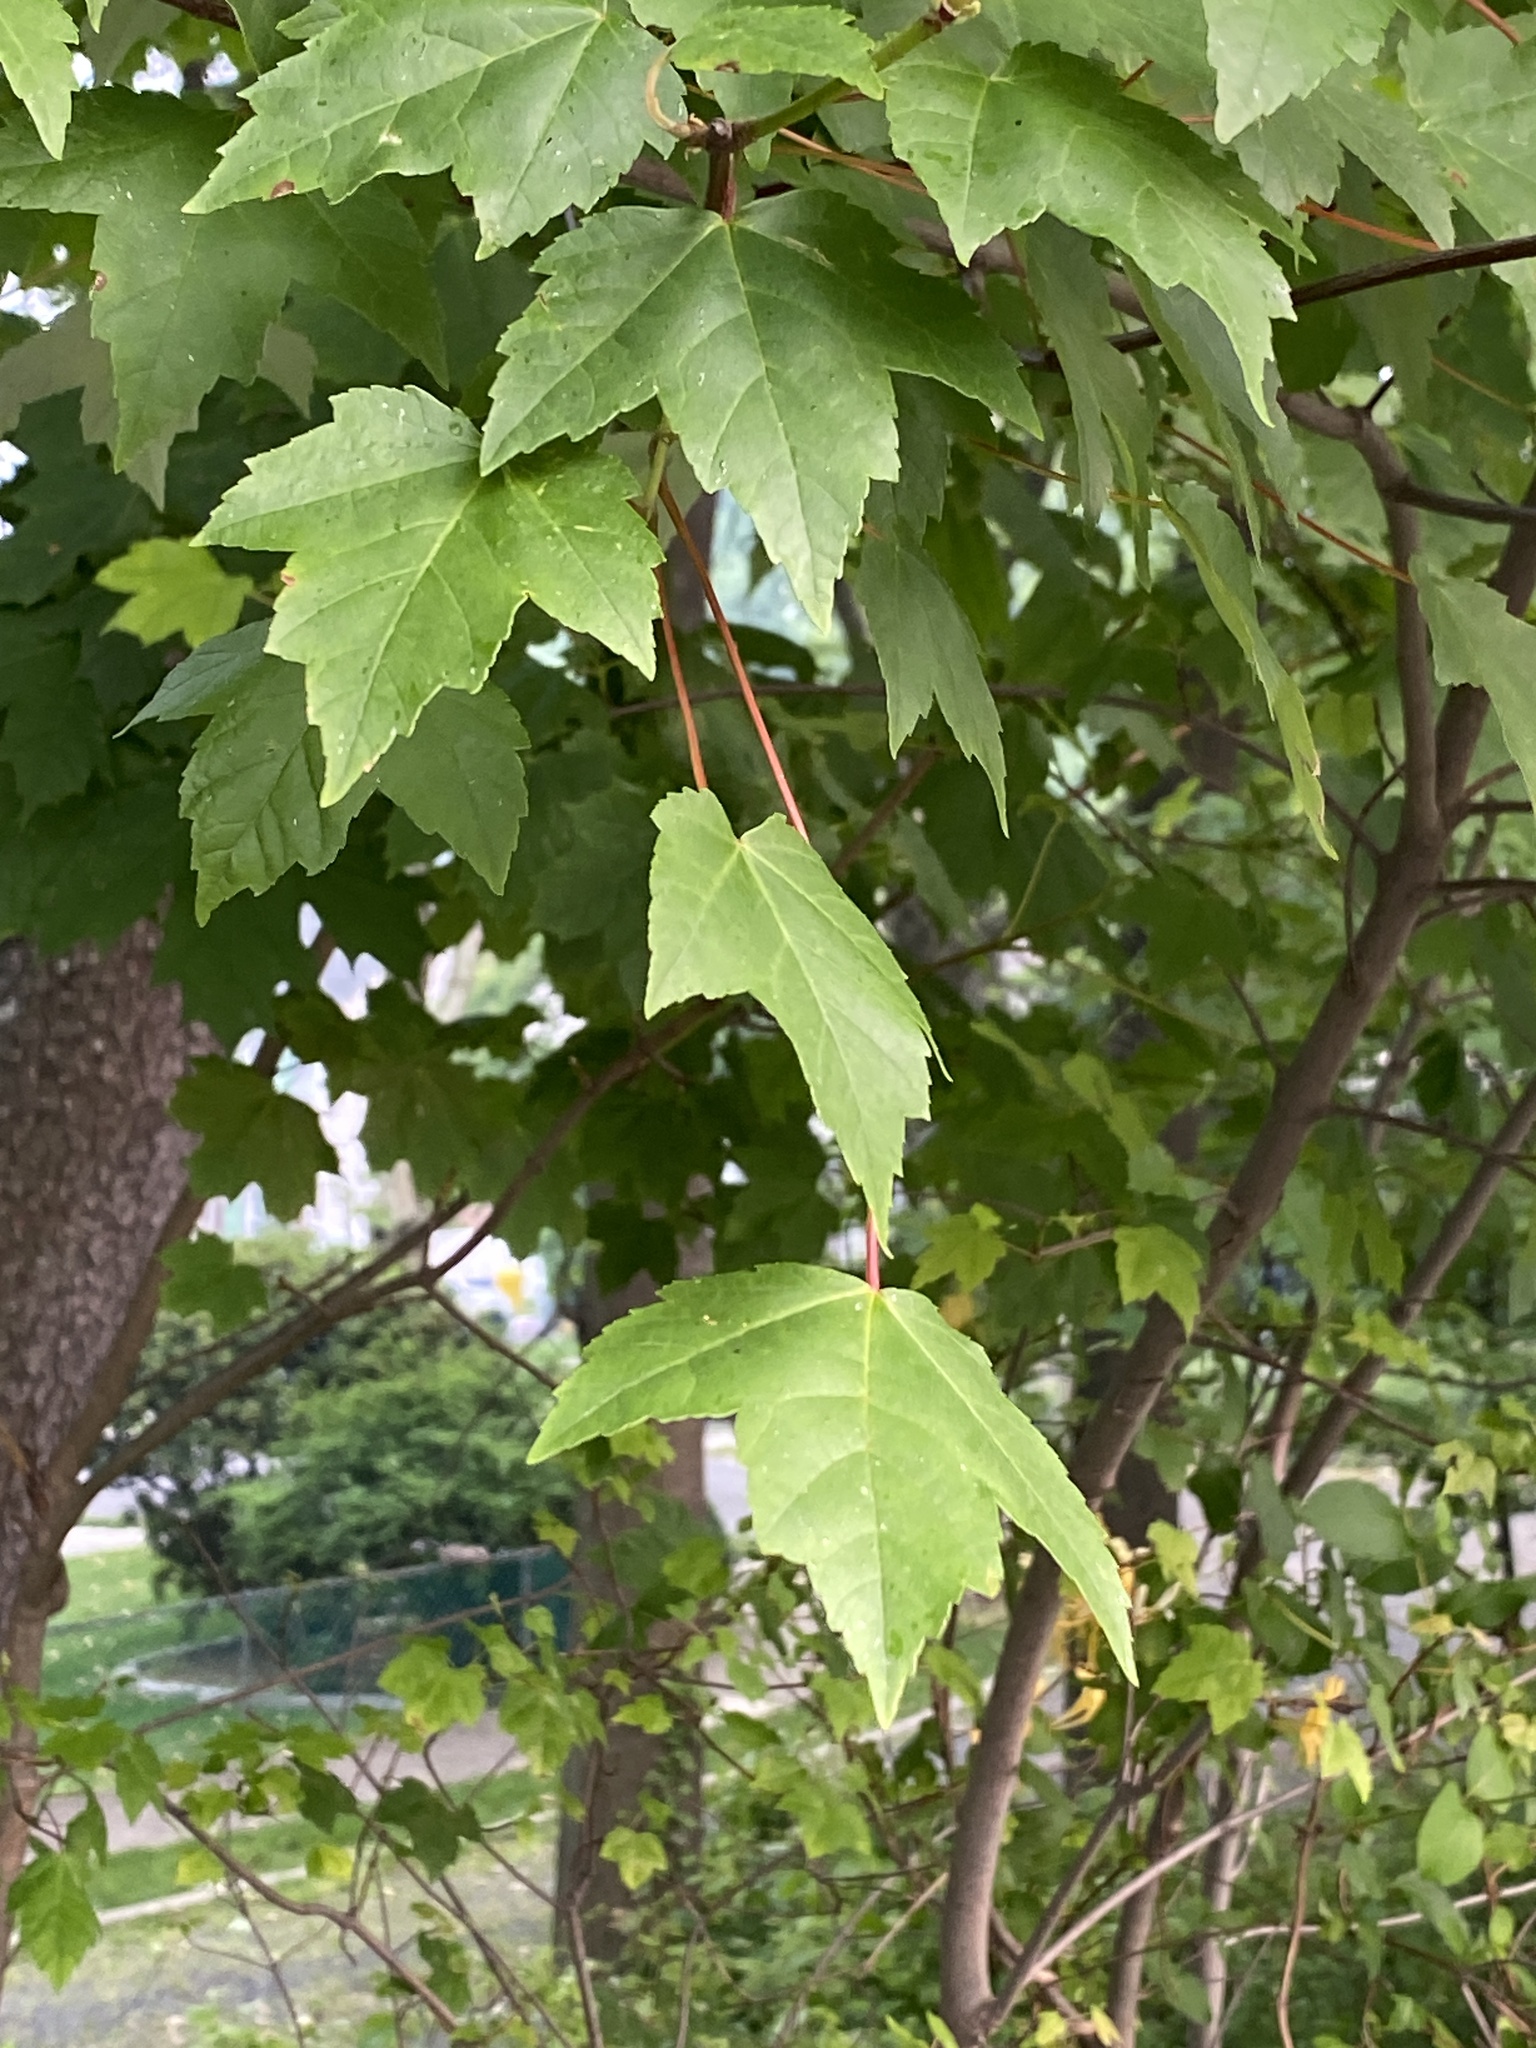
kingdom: Plantae
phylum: Tracheophyta
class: Magnoliopsida
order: Sapindales
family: Sapindaceae
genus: Acer
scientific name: Acer rubrum
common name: Red maple
